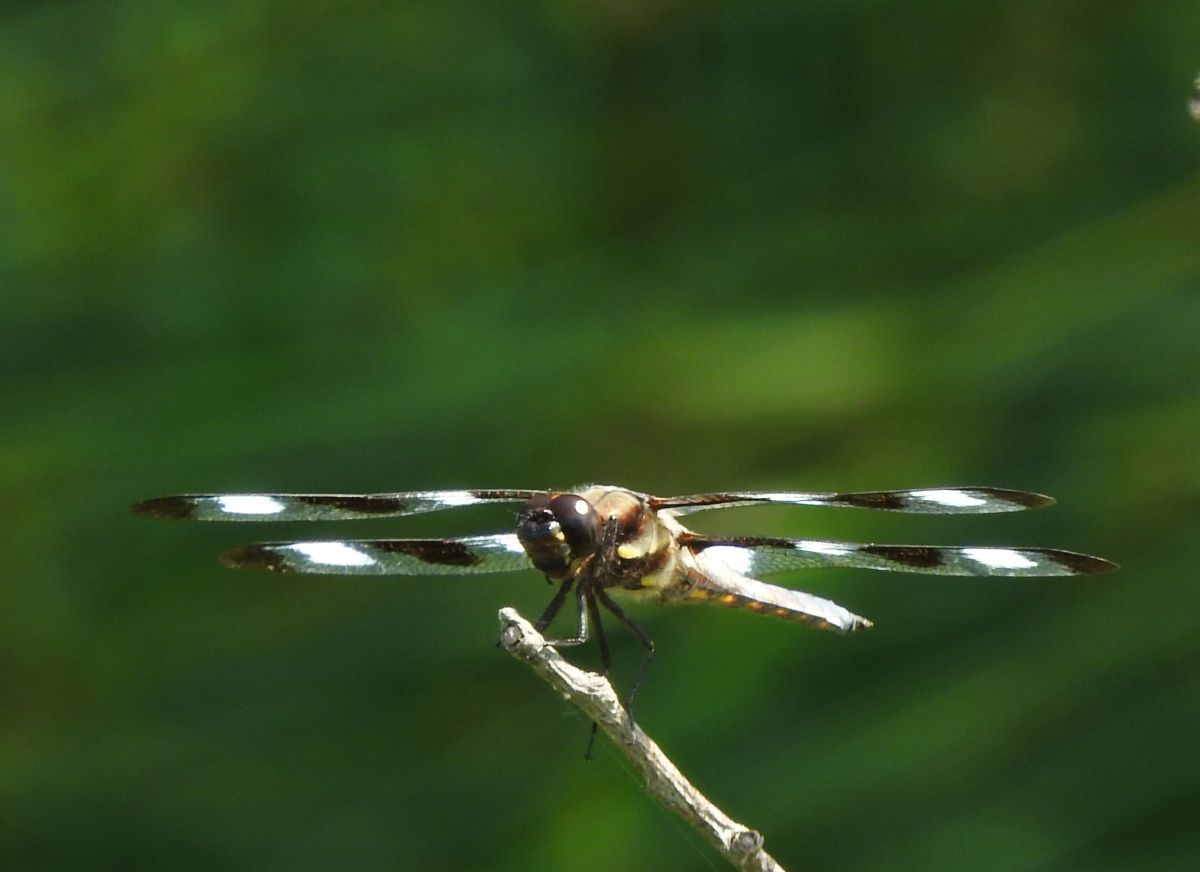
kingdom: Animalia
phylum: Arthropoda
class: Insecta
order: Odonata
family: Libellulidae
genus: Libellula
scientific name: Libellula pulchella
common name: Twelve-spotted skimmer
